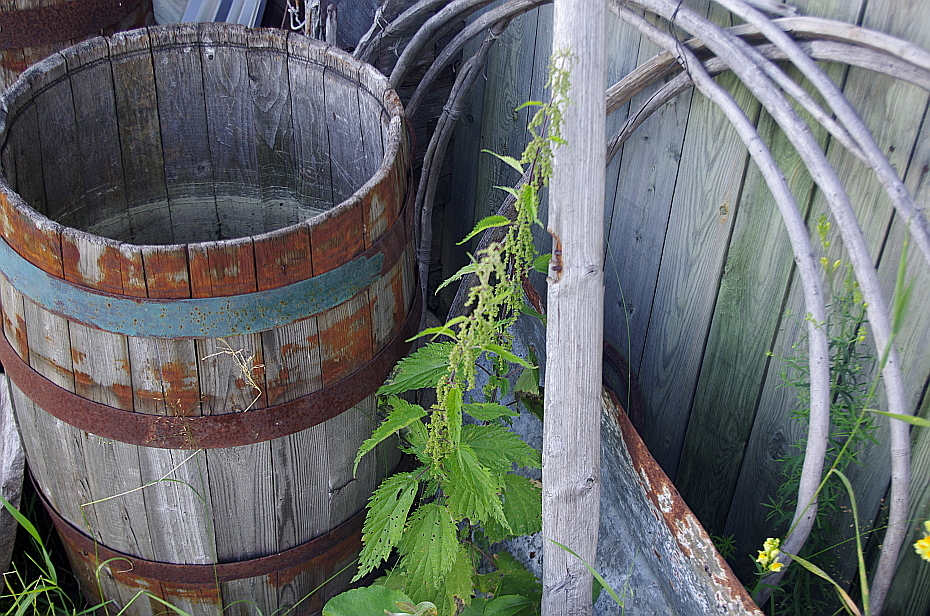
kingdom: Plantae
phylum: Tracheophyta
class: Magnoliopsida
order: Rosales
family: Urticaceae
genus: Urtica
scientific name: Urtica dioica
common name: Common nettle
